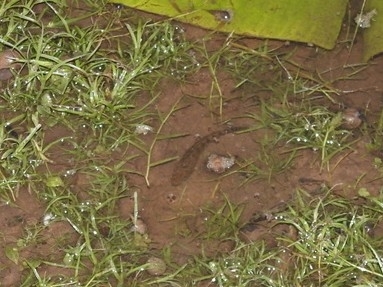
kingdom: Animalia
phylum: Chordata
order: Perciformes
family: Channidae
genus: Channa
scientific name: Channa punctata
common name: Spotted snakehead
